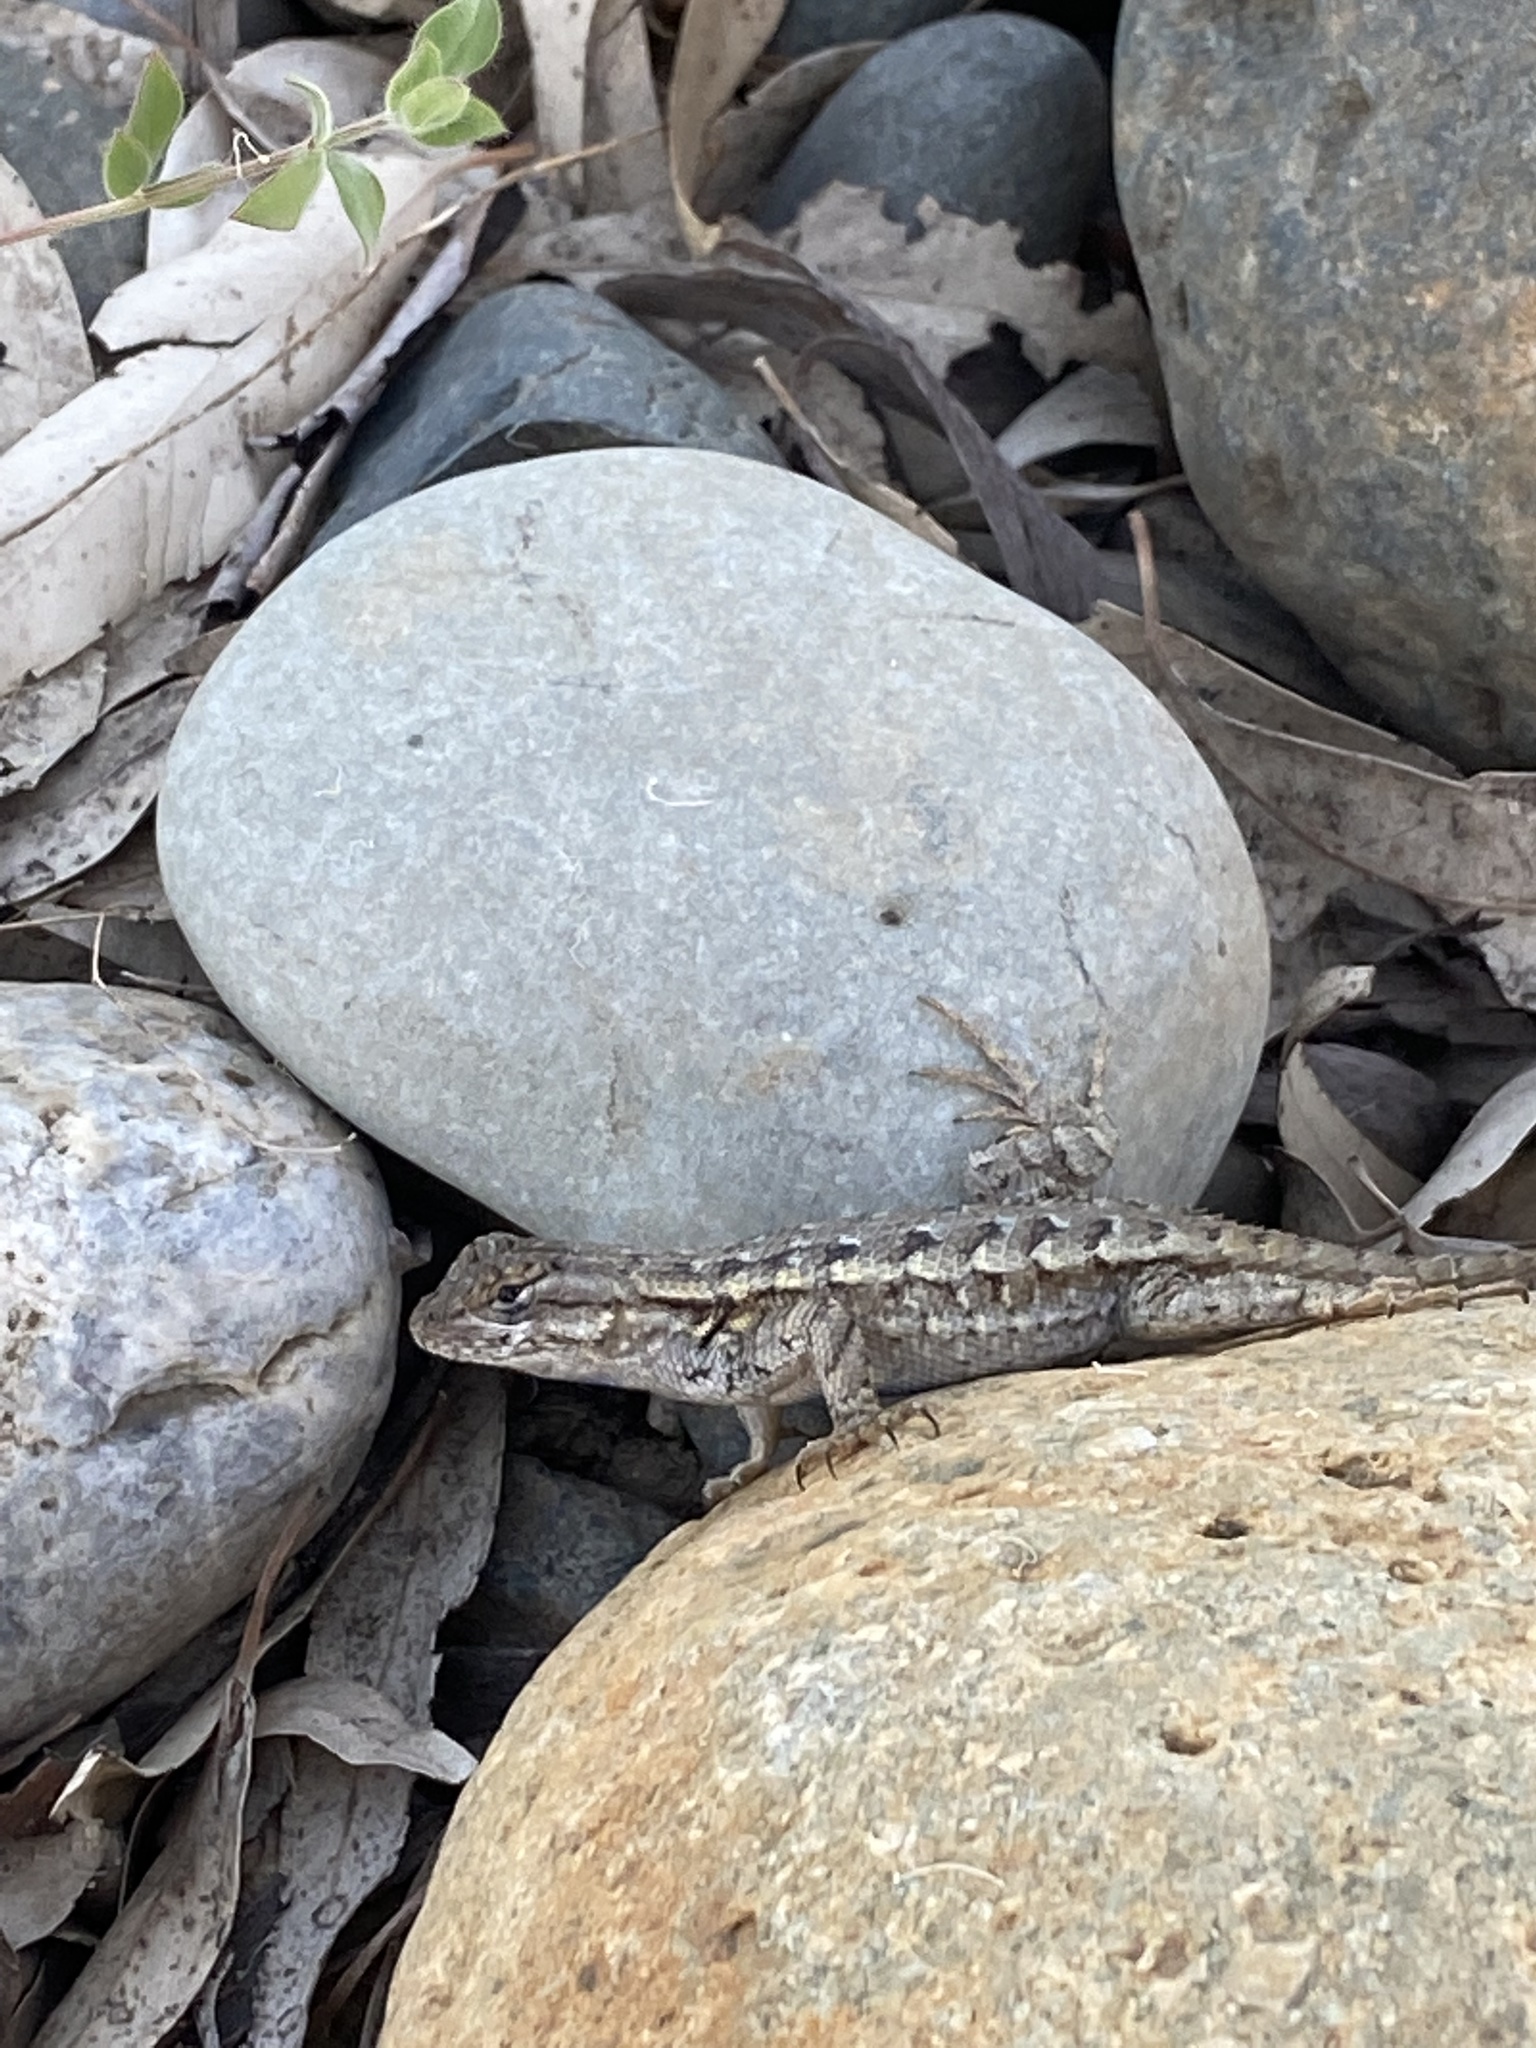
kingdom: Animalia
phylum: Chordata
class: Squamata
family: Phrynosomatidae
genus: Sceloporus
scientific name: Sceloporus occidentalis
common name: Western fence lizard
